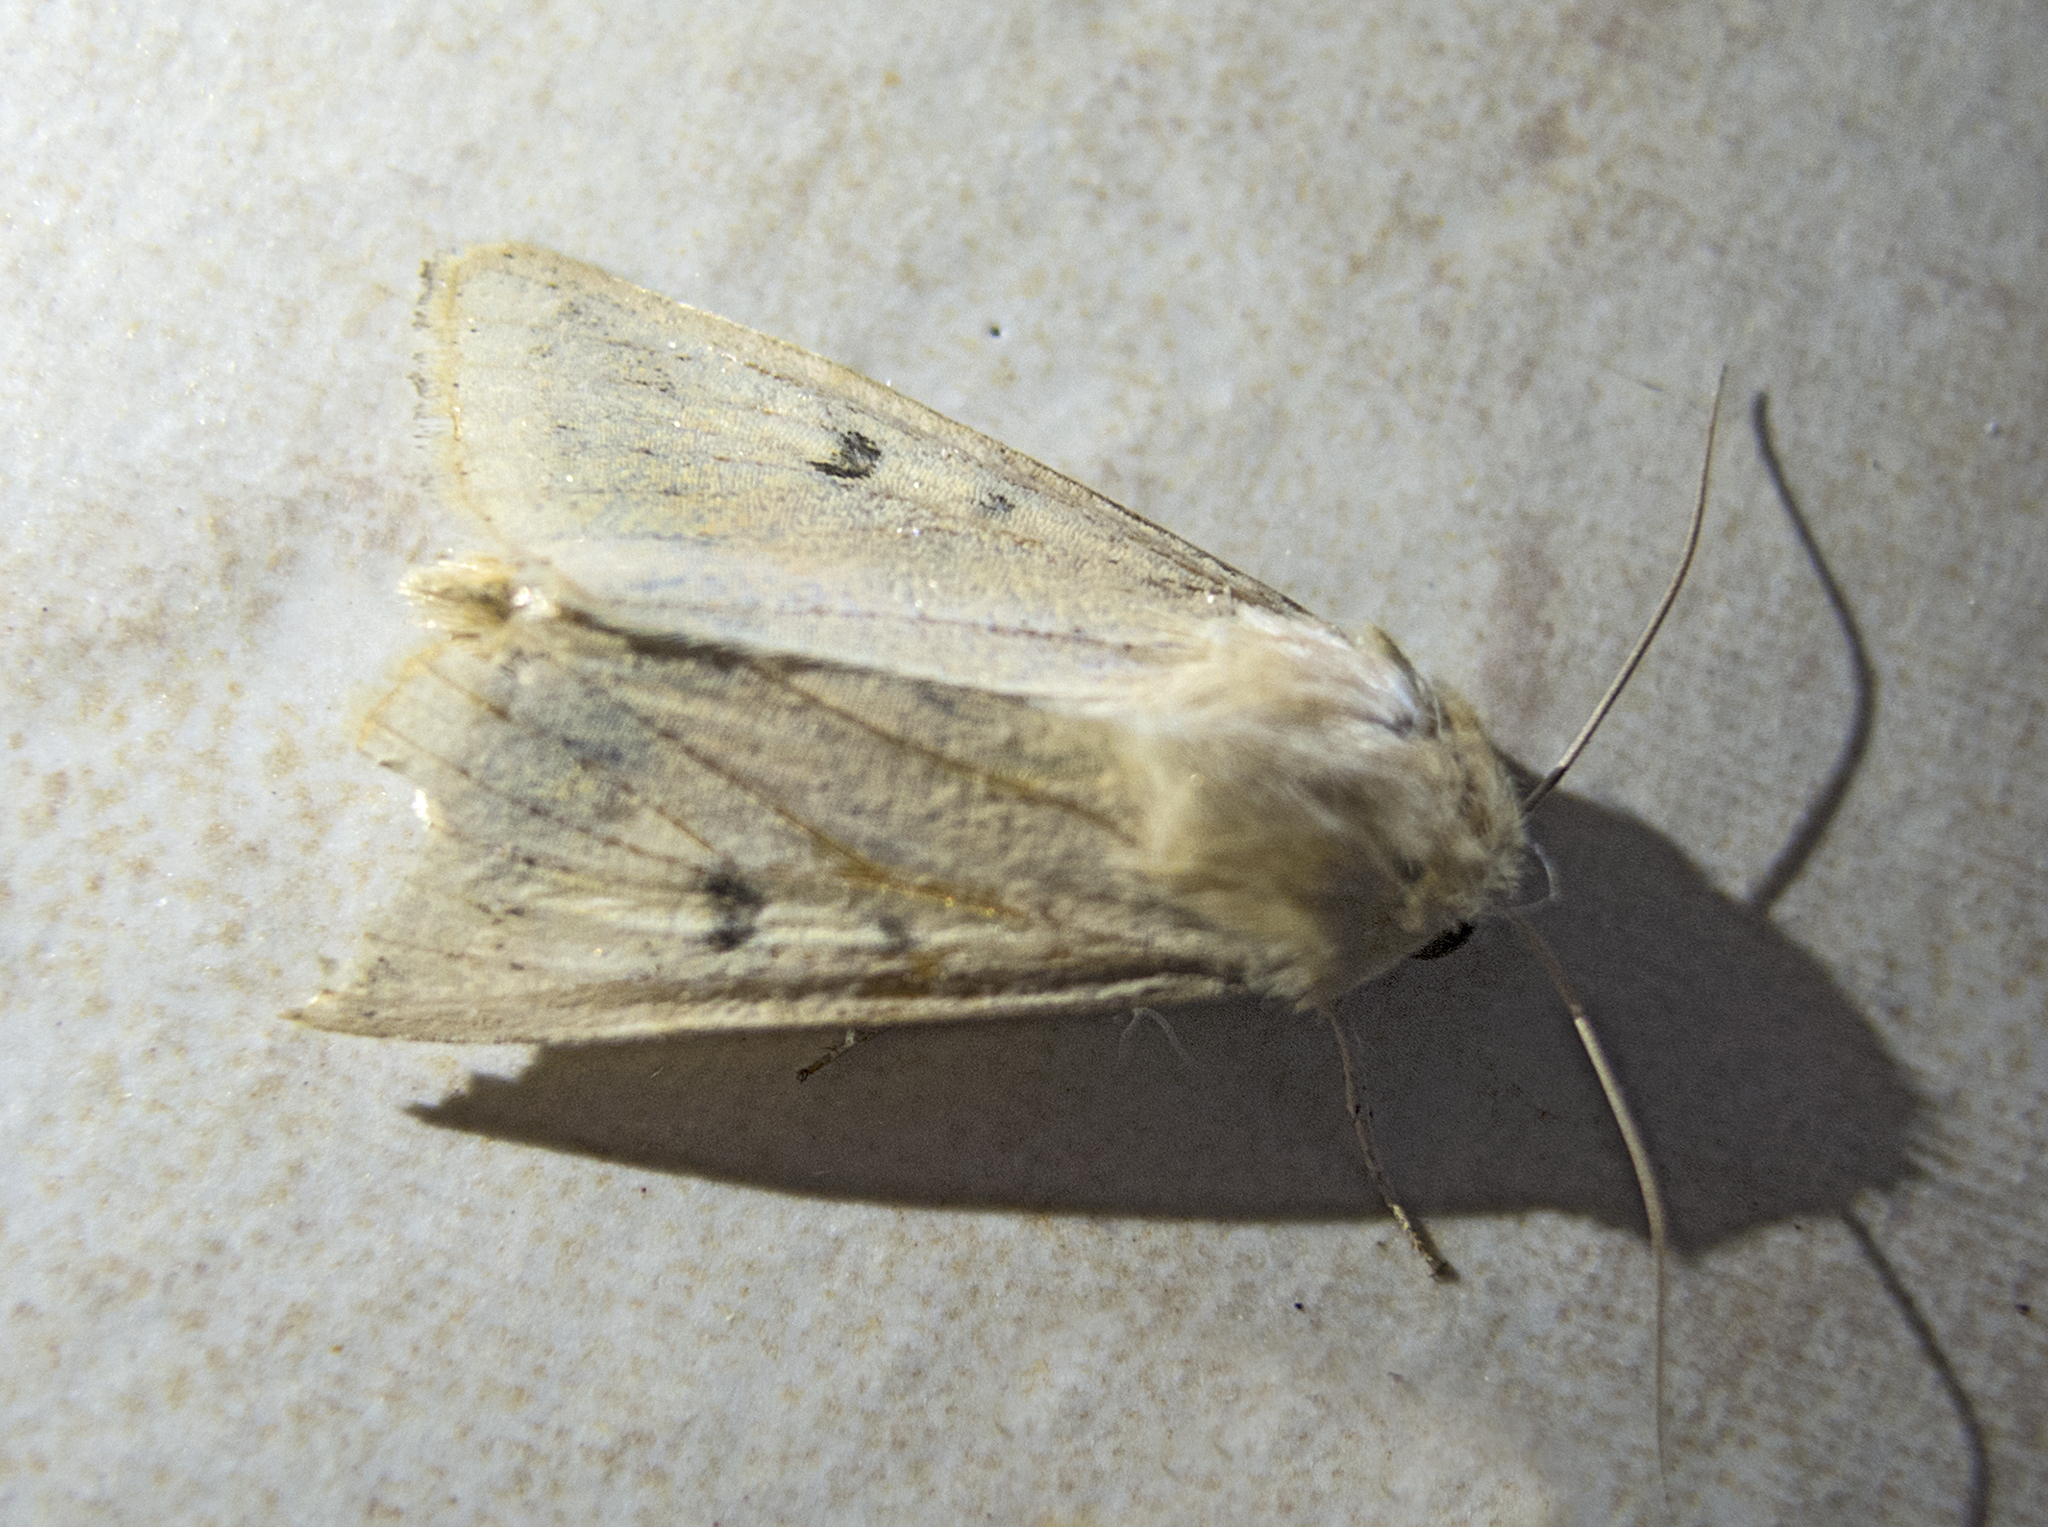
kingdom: Animalia
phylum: Arthropoda
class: Insecta
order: Lepidoptera
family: Noctuidae
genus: Helicoverpa
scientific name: Helicoverpa armigera
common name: Cotton bollworm
